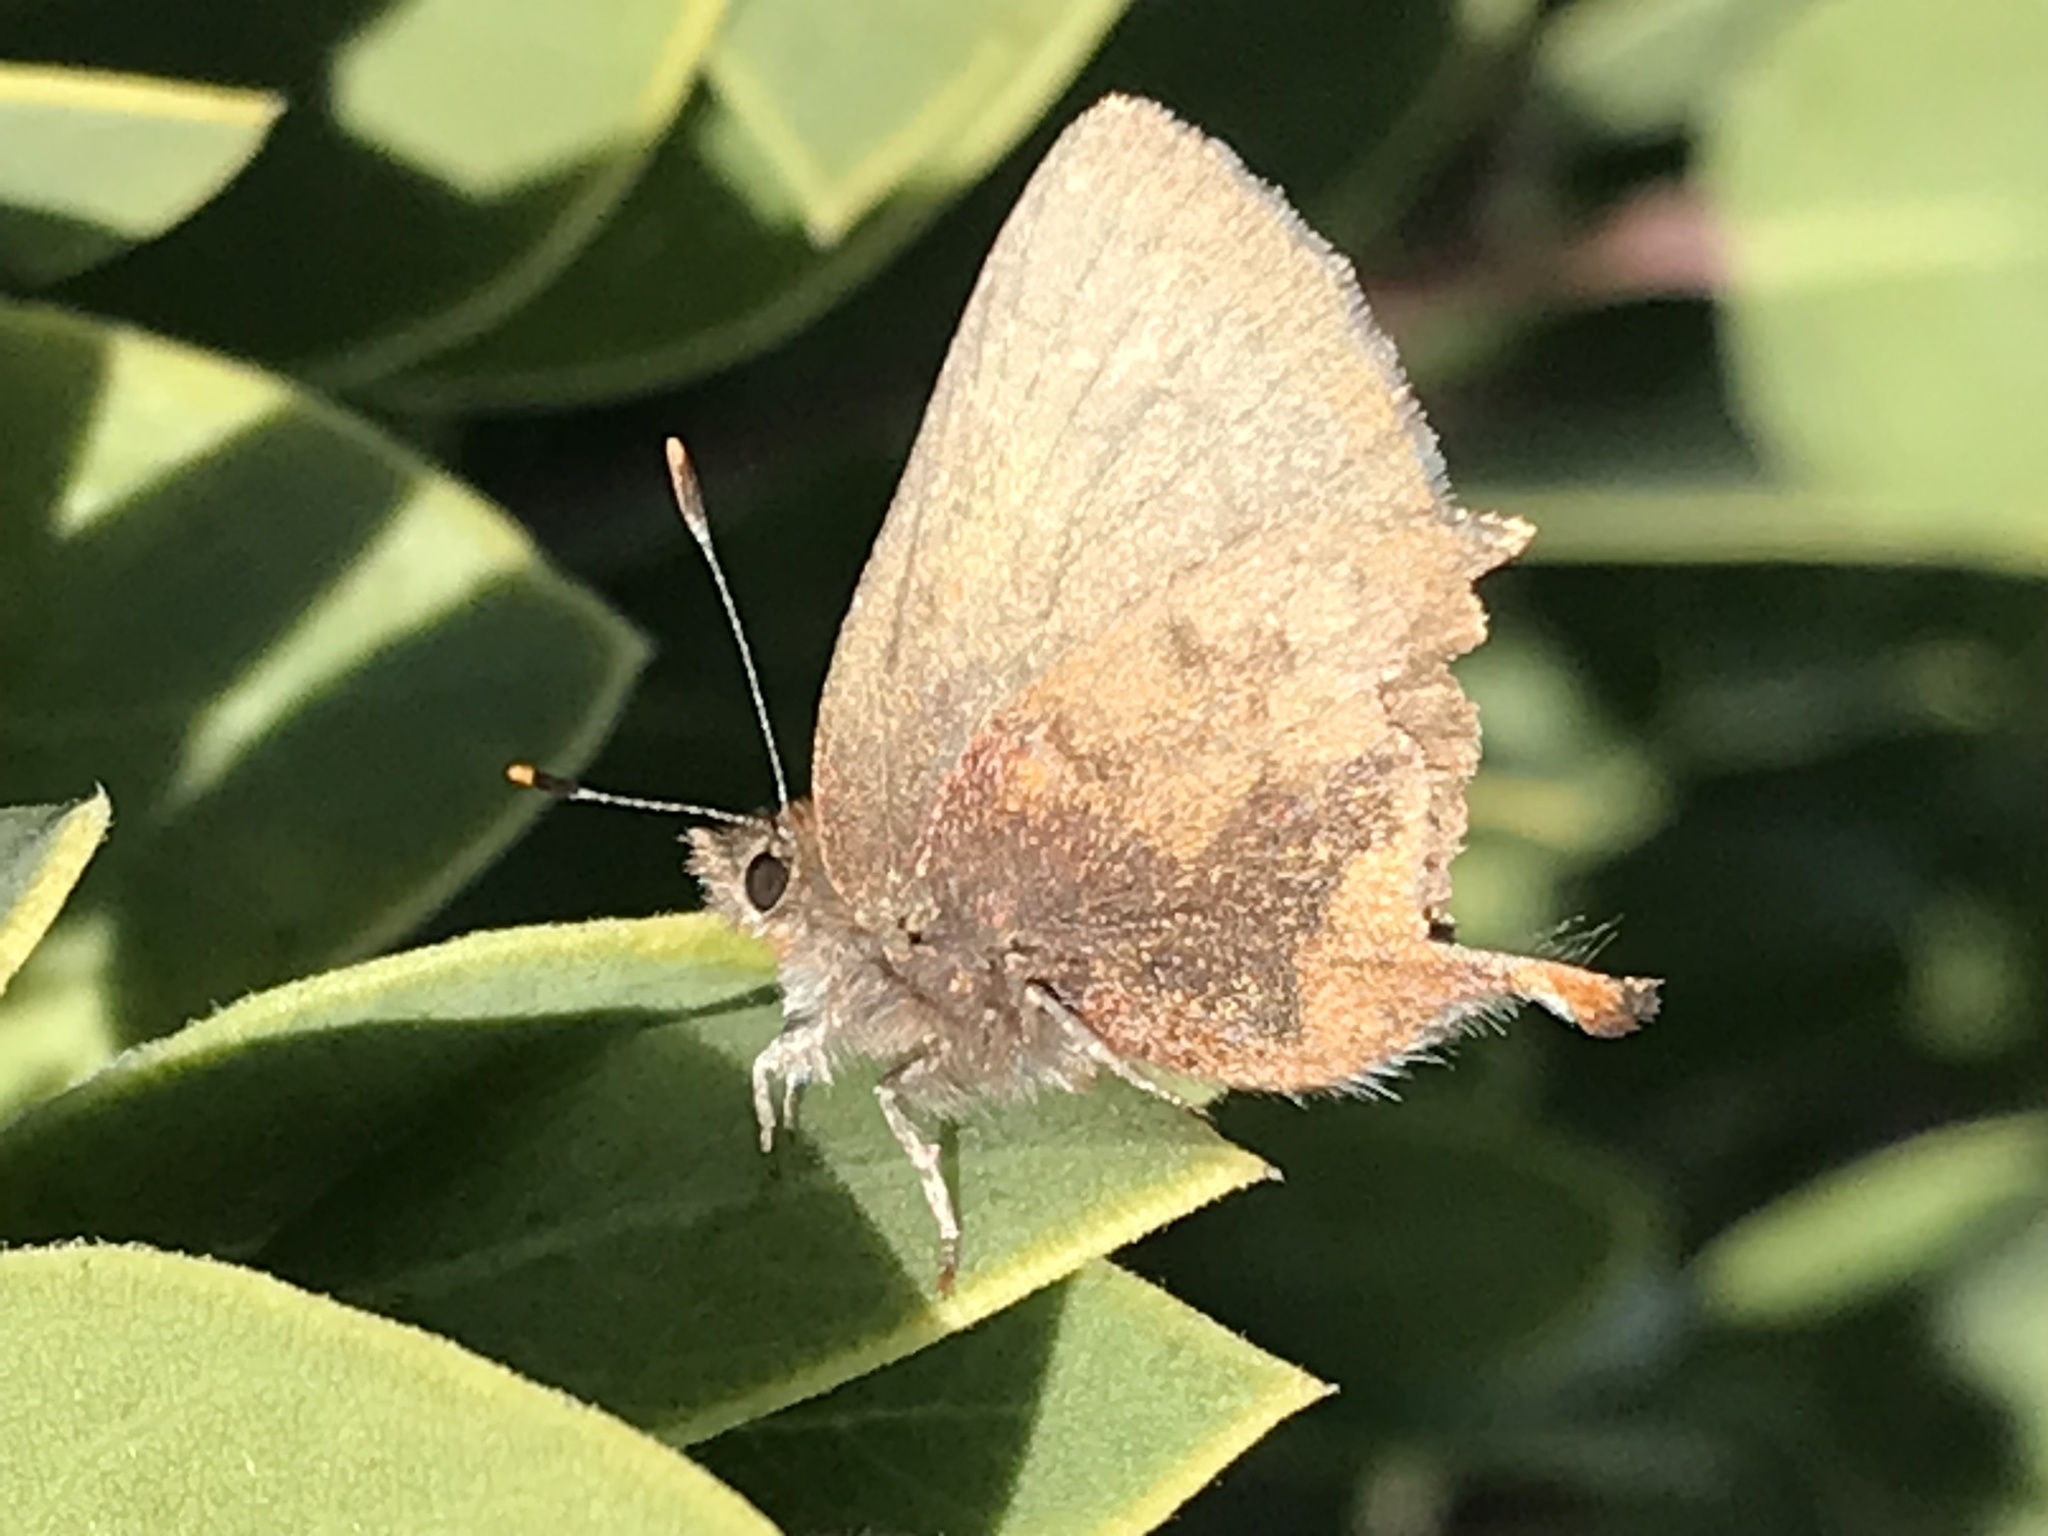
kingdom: Animalia
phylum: Arthropoda
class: Insecta
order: Lepidoptera
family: Lycaenidae
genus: Incisalia
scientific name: Incisalia irioides
